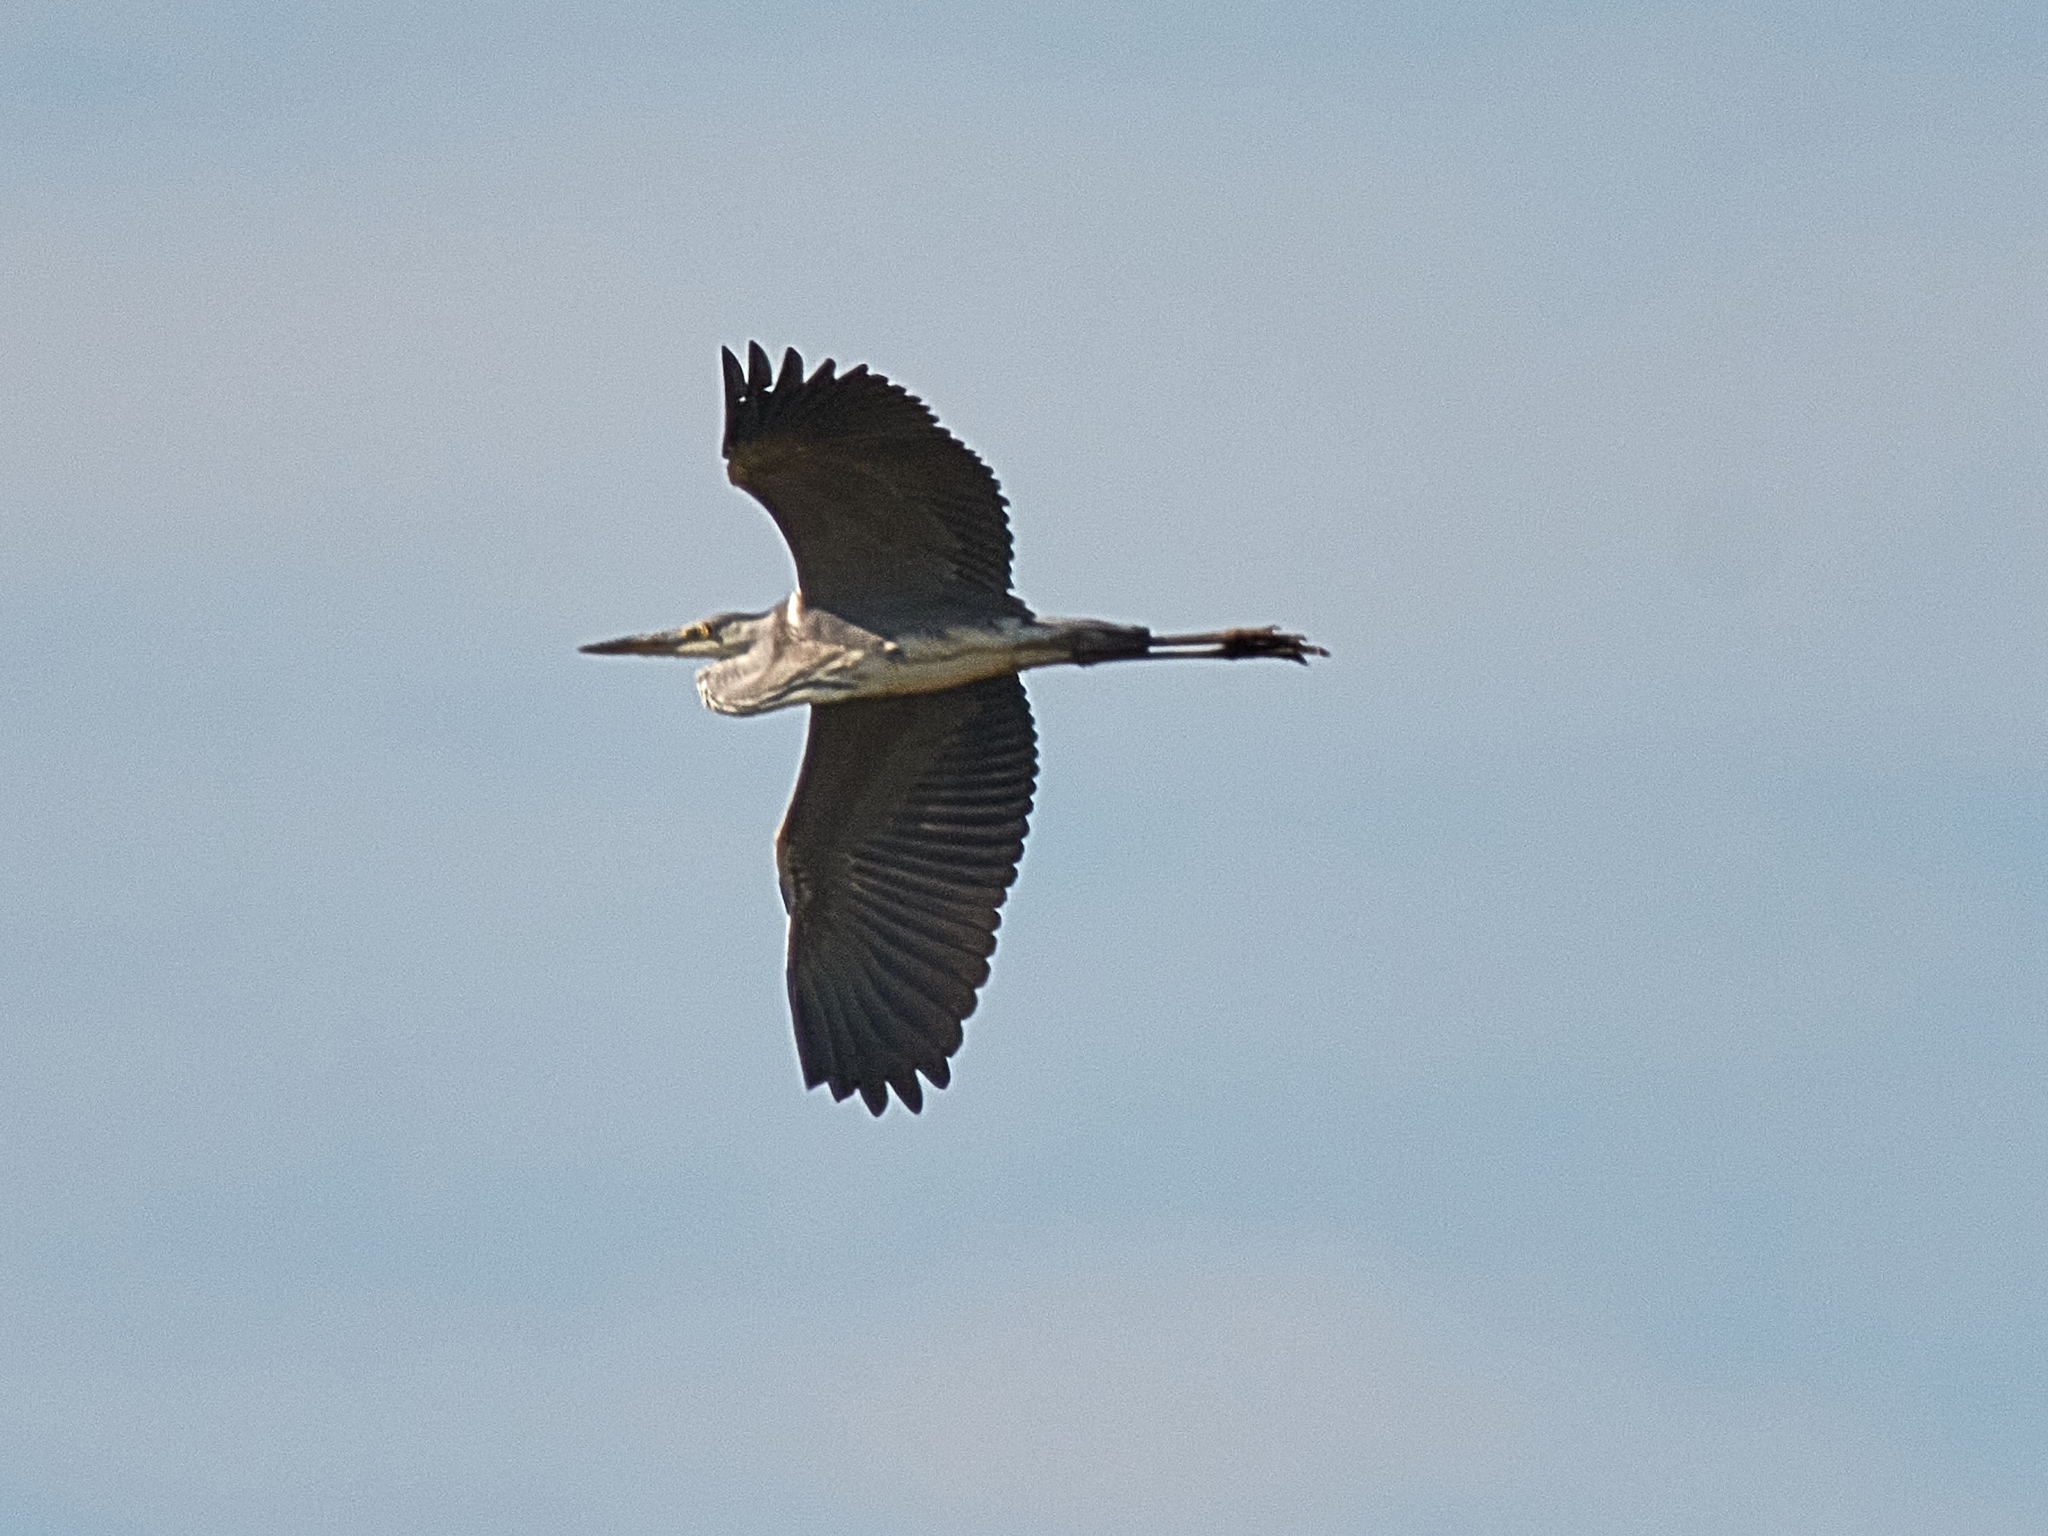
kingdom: Animalia
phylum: Chordata
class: Aves
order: Pelecaniformes
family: Ardeidae
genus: Ardea
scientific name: Ardea cinerea
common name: Grey heron
